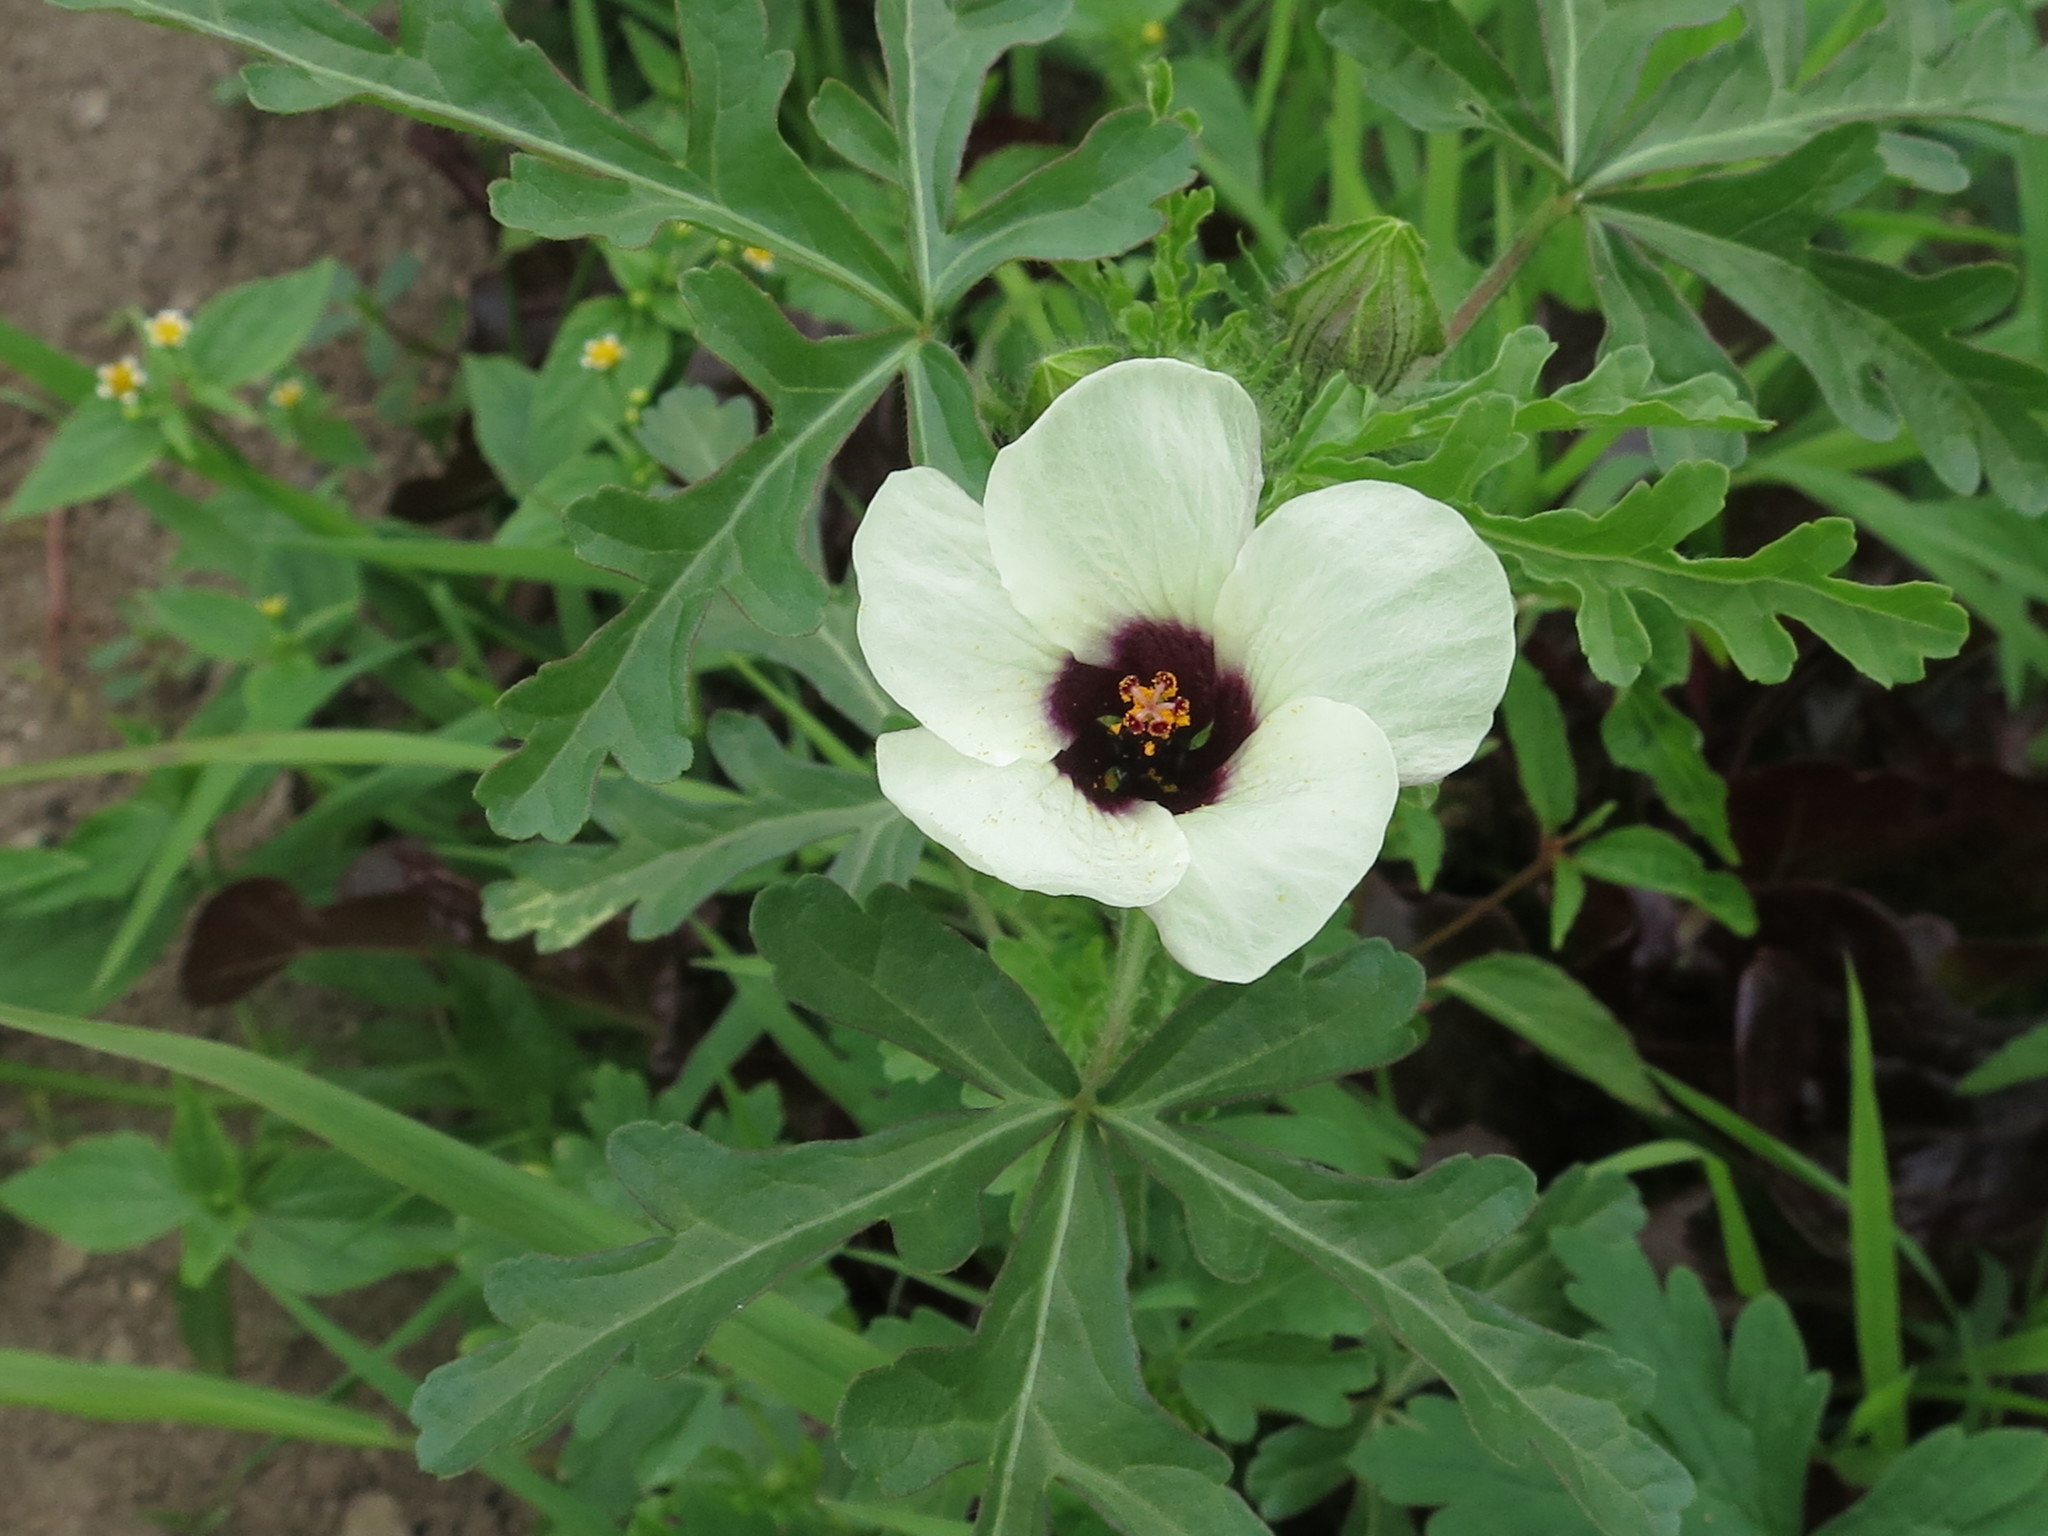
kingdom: Plantae
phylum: Tracheophyta
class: Magnoliopsida
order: Malvales
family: Malvaceae
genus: Hibiscus
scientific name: Hibiscus trionum
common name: Bladder ketmia
